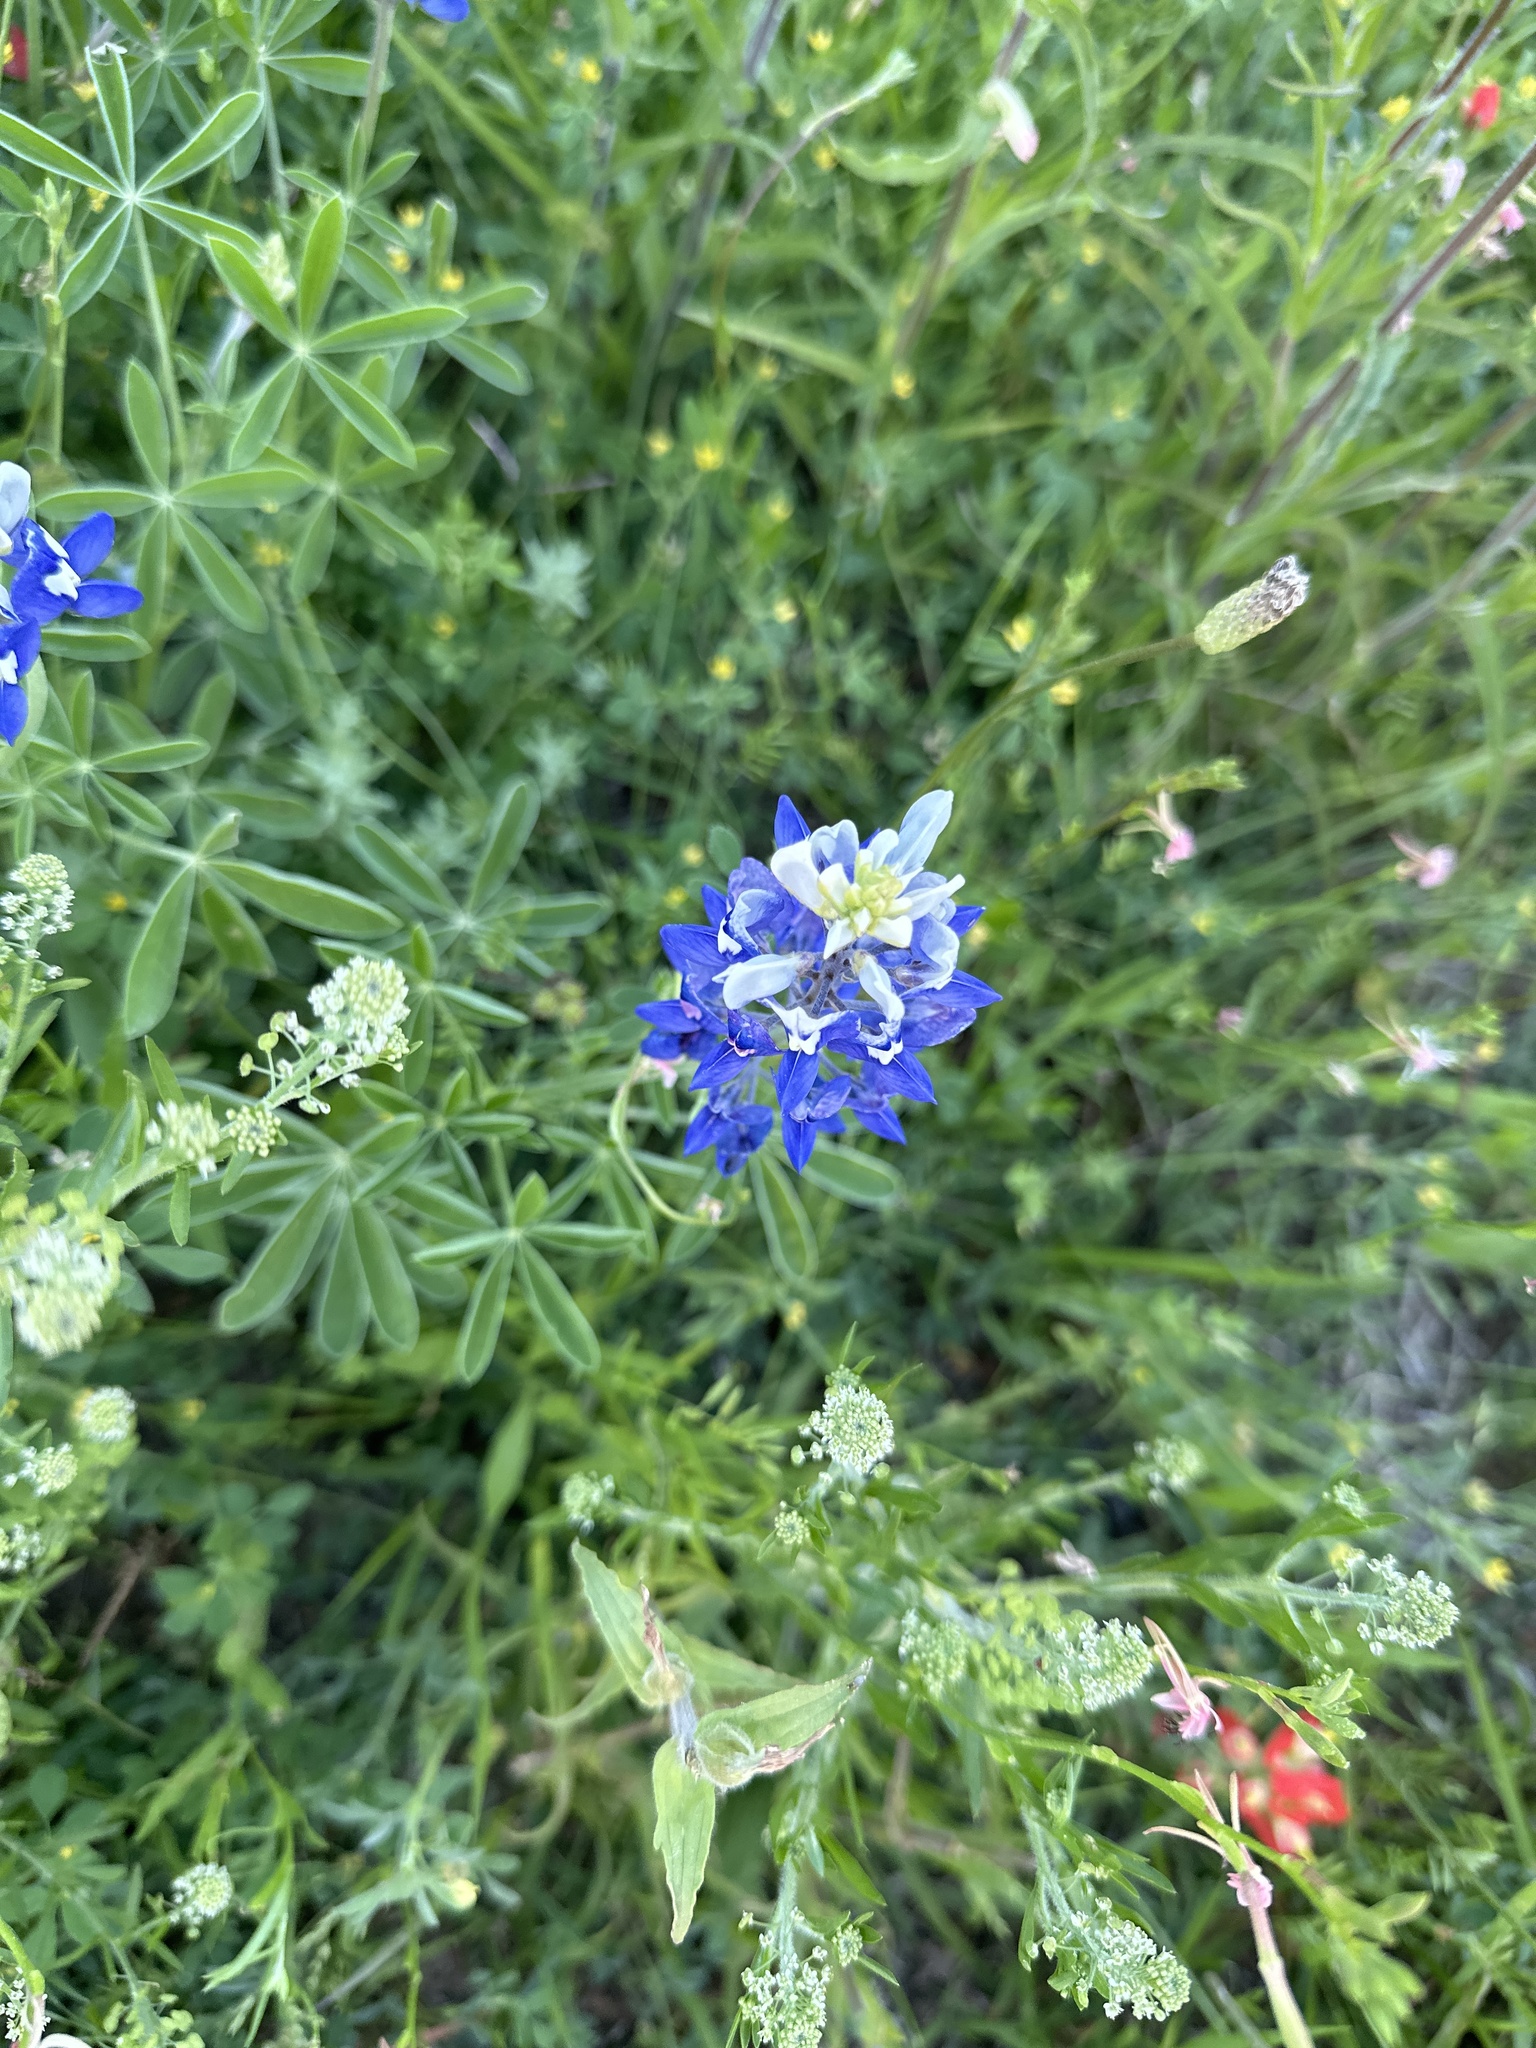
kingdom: Plantae
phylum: Tracheophyta
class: Magnoliopsida
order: Fabales
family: Fabaceae
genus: Lupinus
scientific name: Lupinus texensis
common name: Texas bluebonnet
